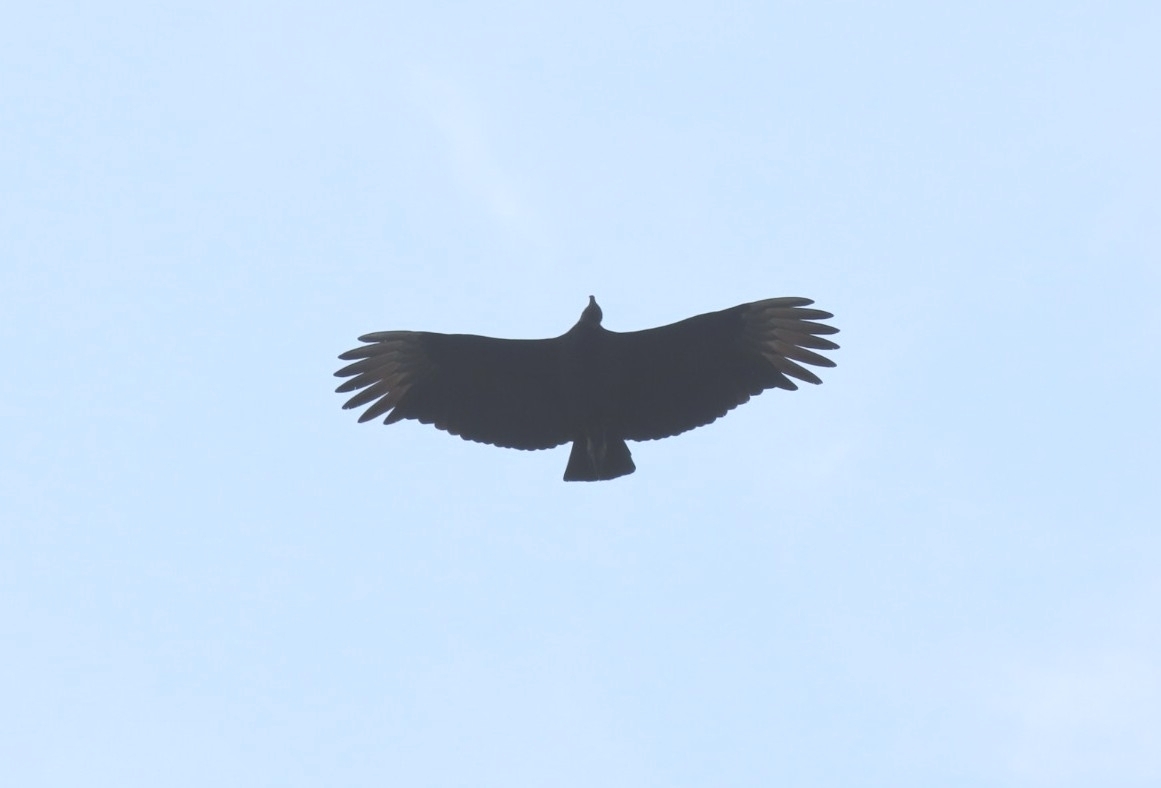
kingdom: Animalia
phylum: Chordata
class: Aves
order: Accipitriformes
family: Cathartidae
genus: Coragyps
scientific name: Coragyps atratus
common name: Black vulture
